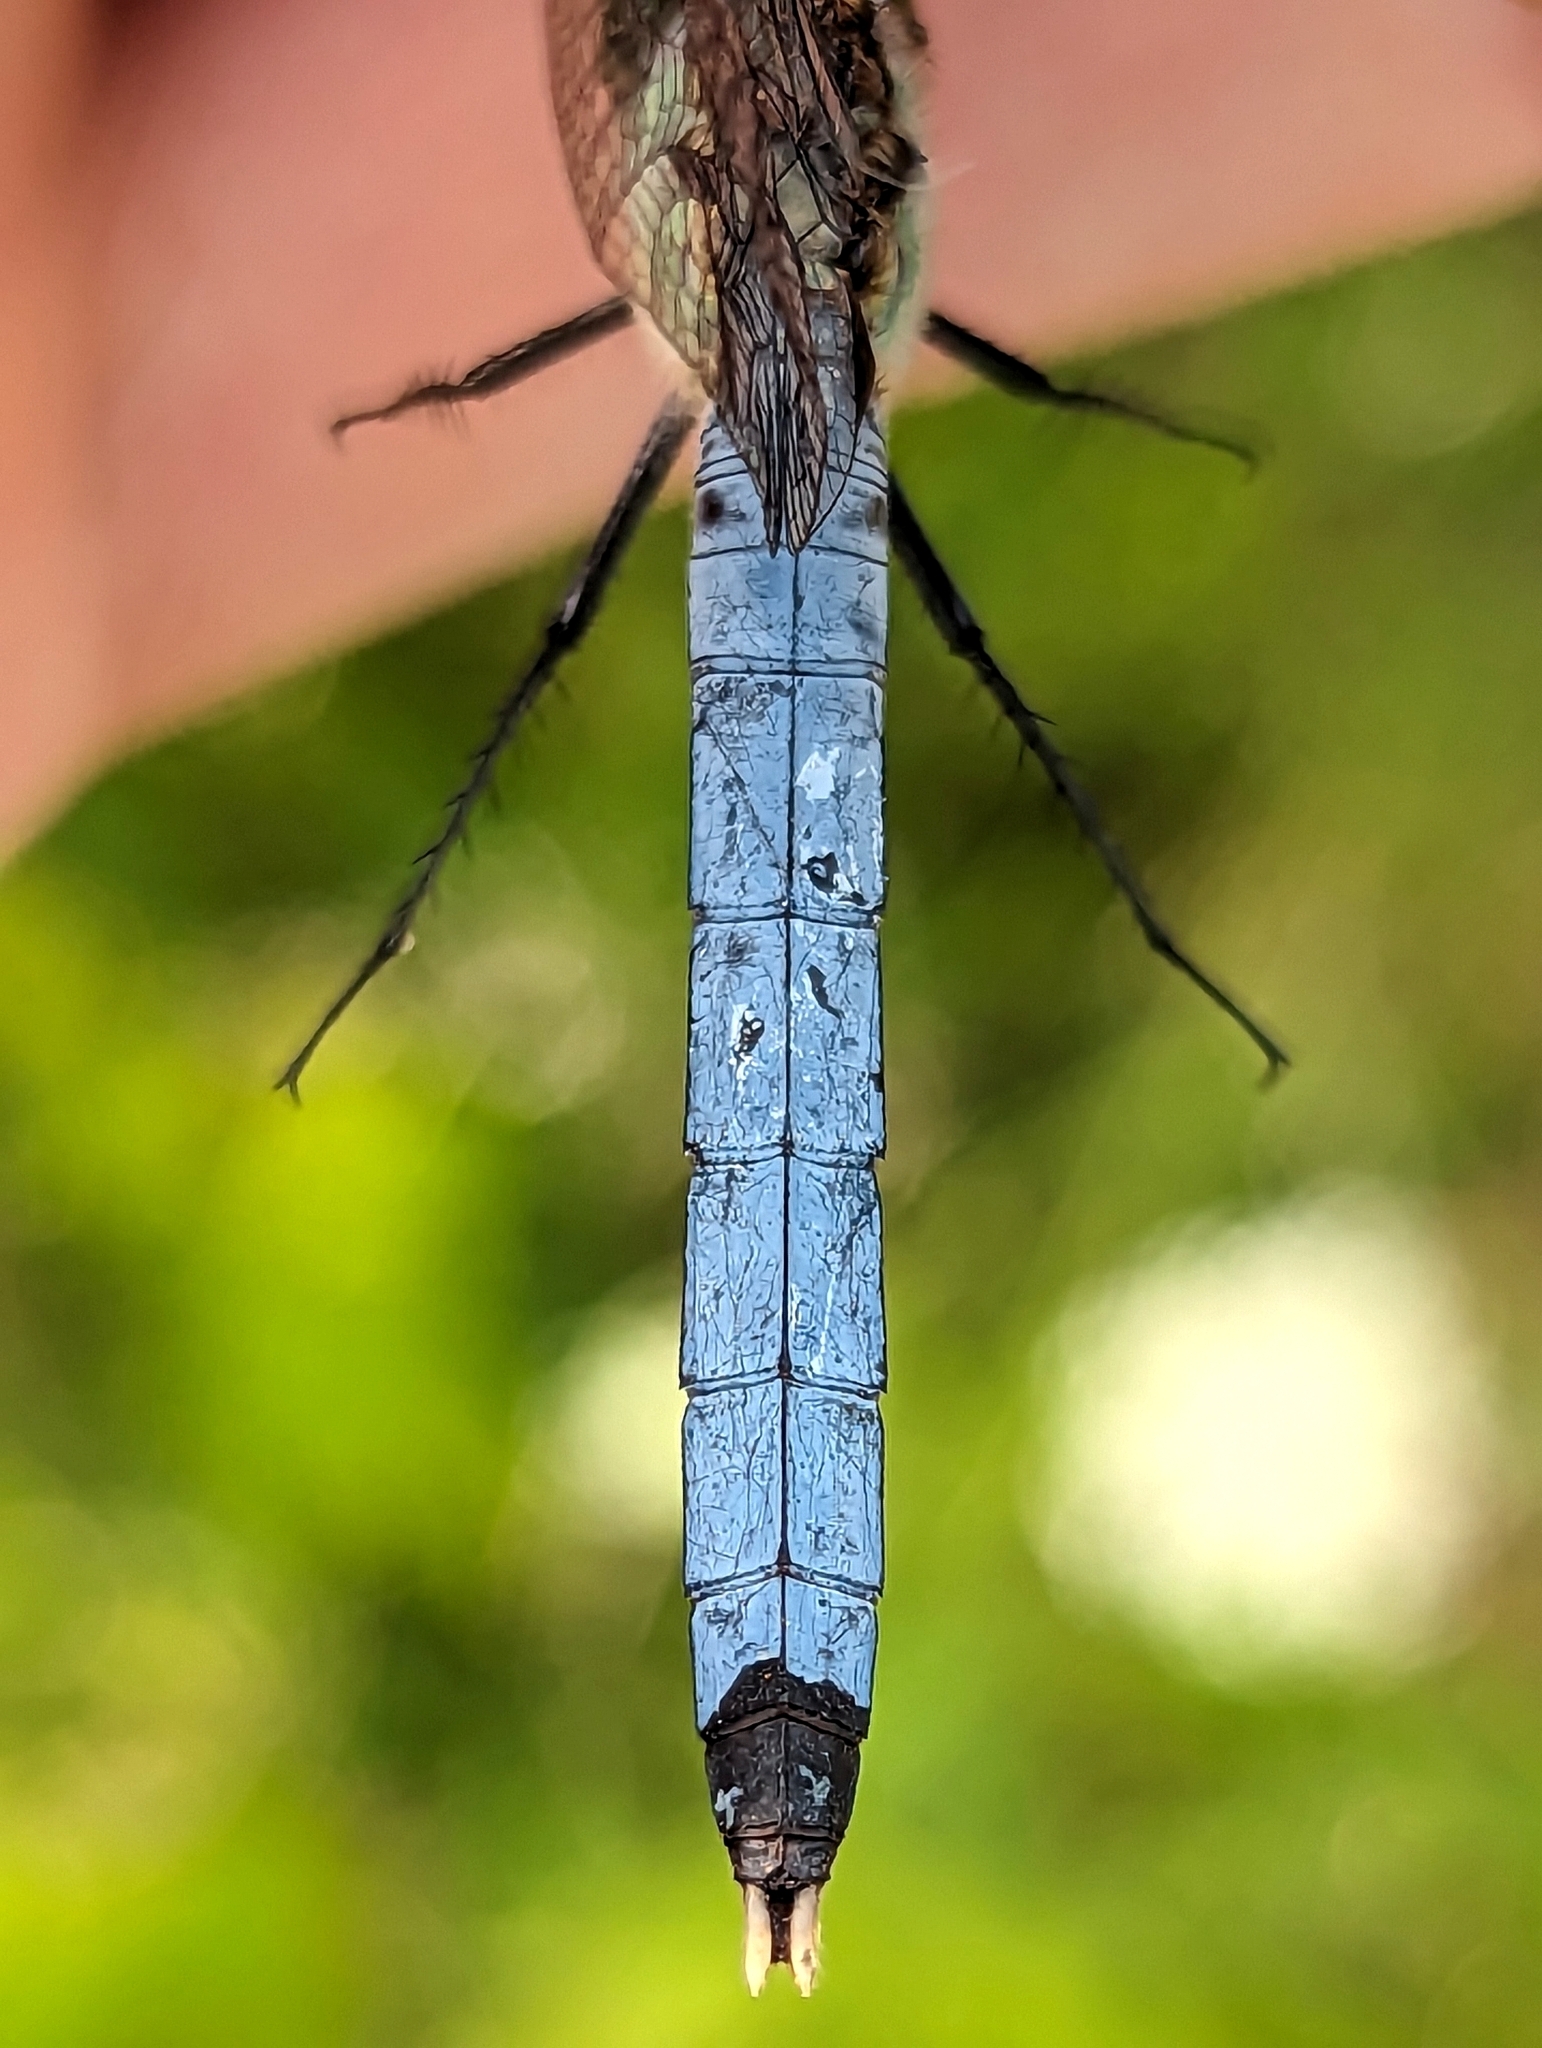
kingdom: Animalia
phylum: Arthropoda
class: Insecta
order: Odonata
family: Libellulidae
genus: Erythemis
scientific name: Erythemis simplicicollis
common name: Eastern pondhawk
